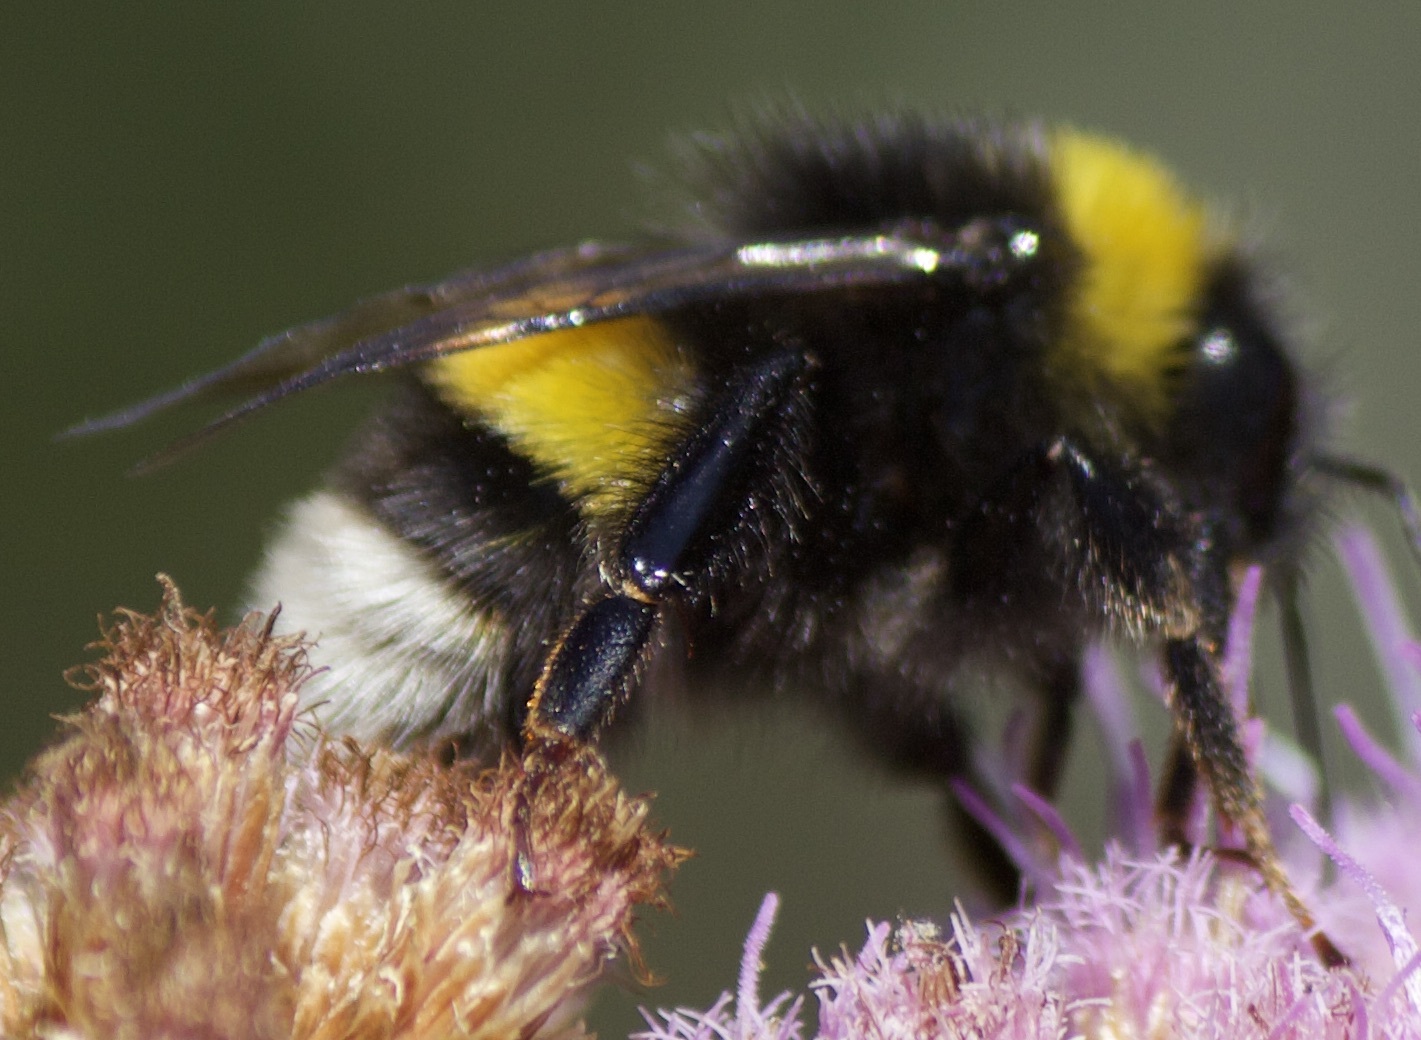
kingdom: Animalia
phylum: Arthropoda
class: Insecta
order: Hymenoptera
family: Apidae
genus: Bombus
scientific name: Bombus terrestris
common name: Buff-tailed bumblebee
